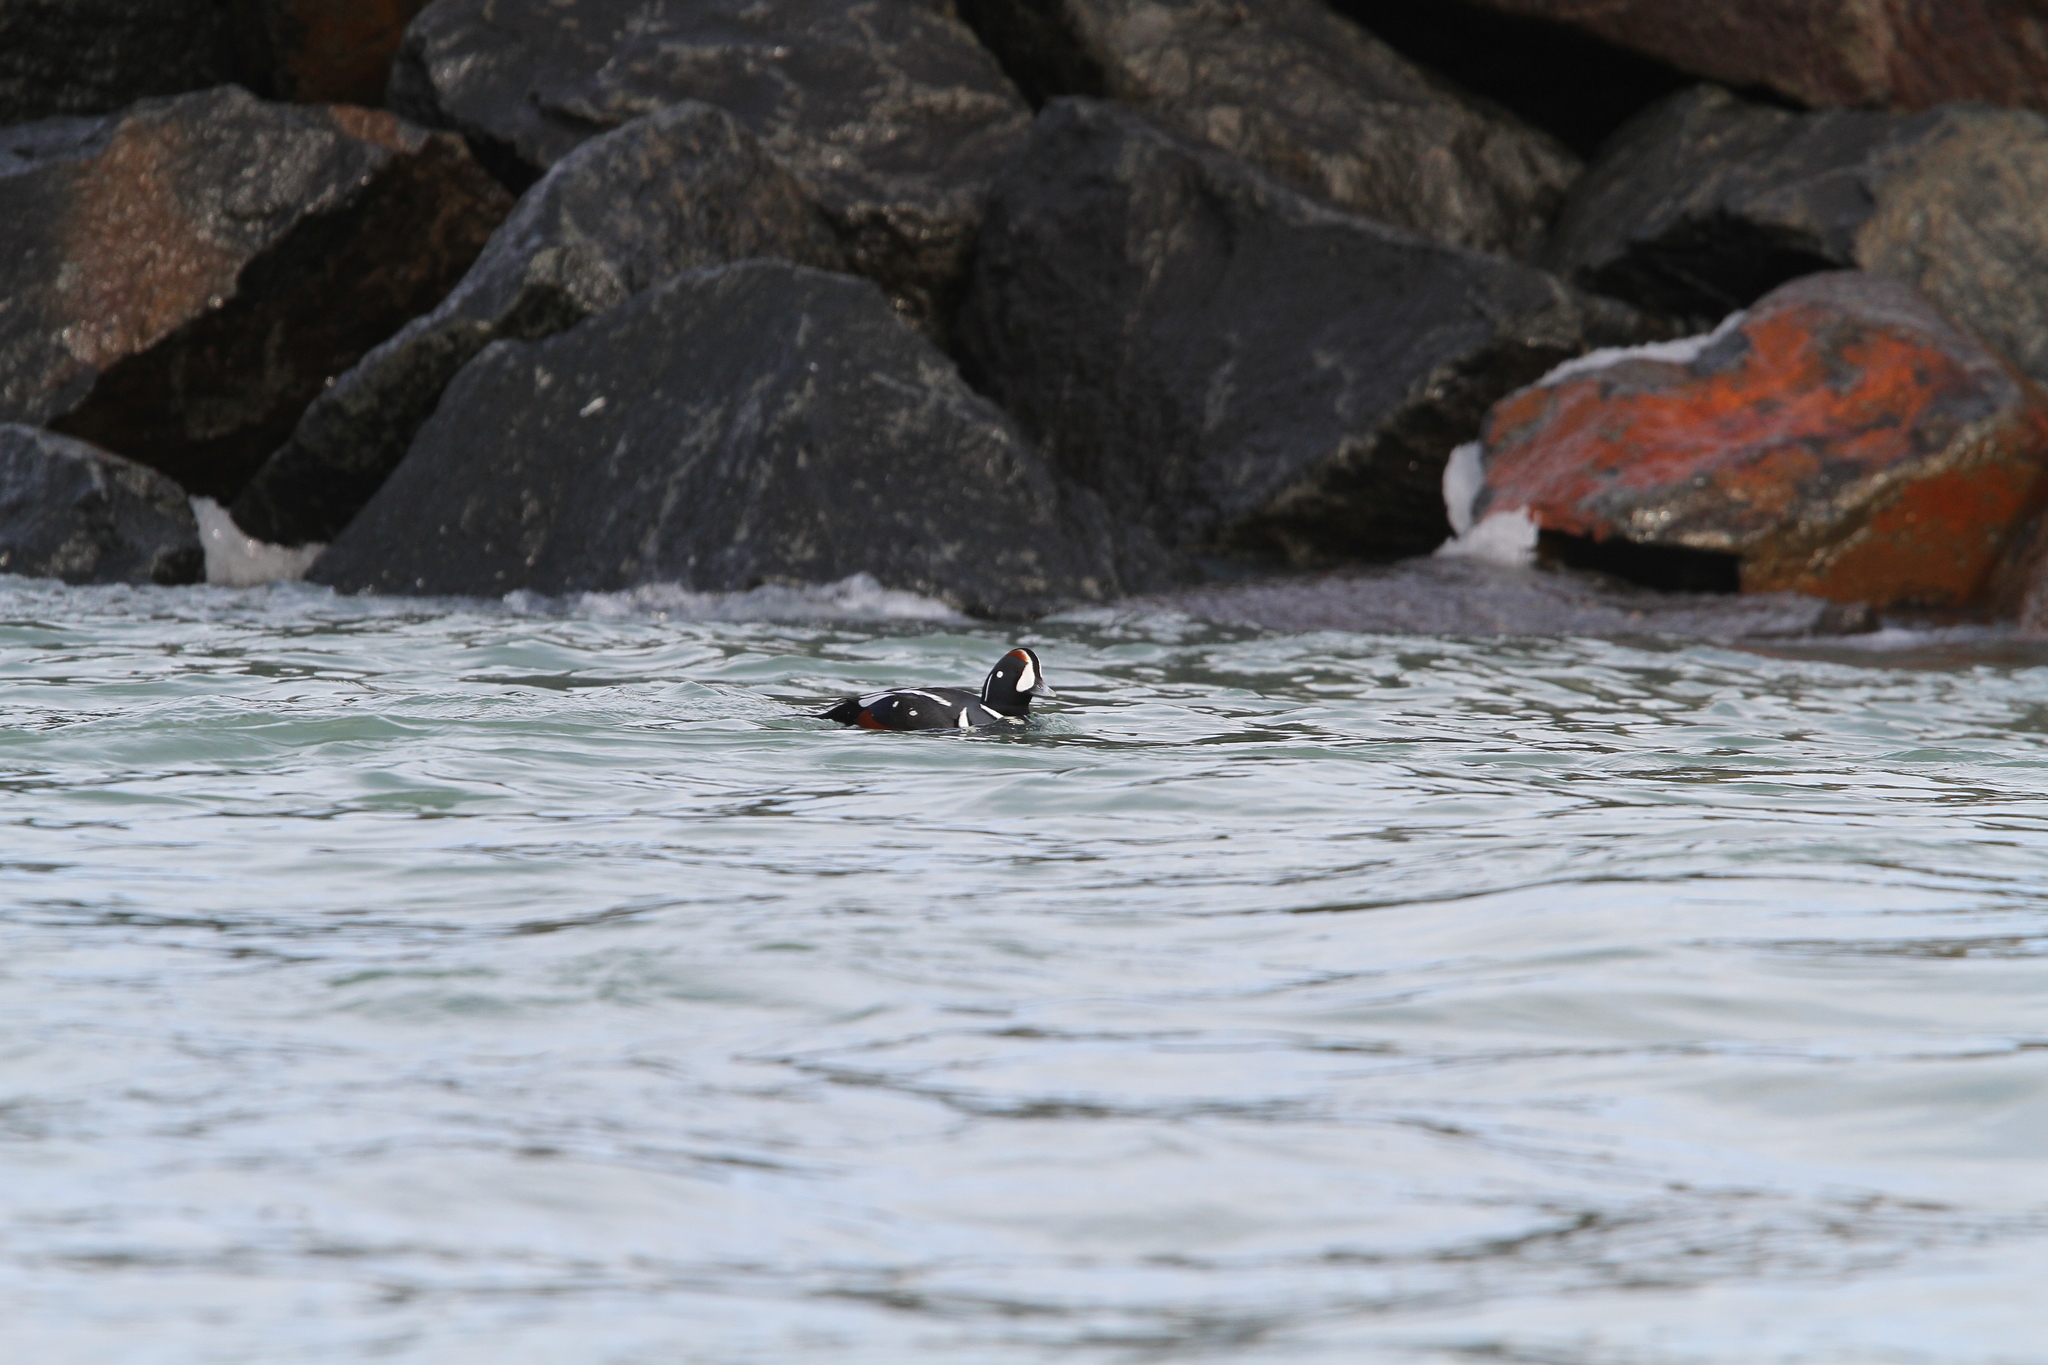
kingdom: Animalia
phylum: Chordata
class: Aves
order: Anseriformes
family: Anatidae
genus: Histrionicus
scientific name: Histrionicus histrionicus
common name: Harlequin duck
